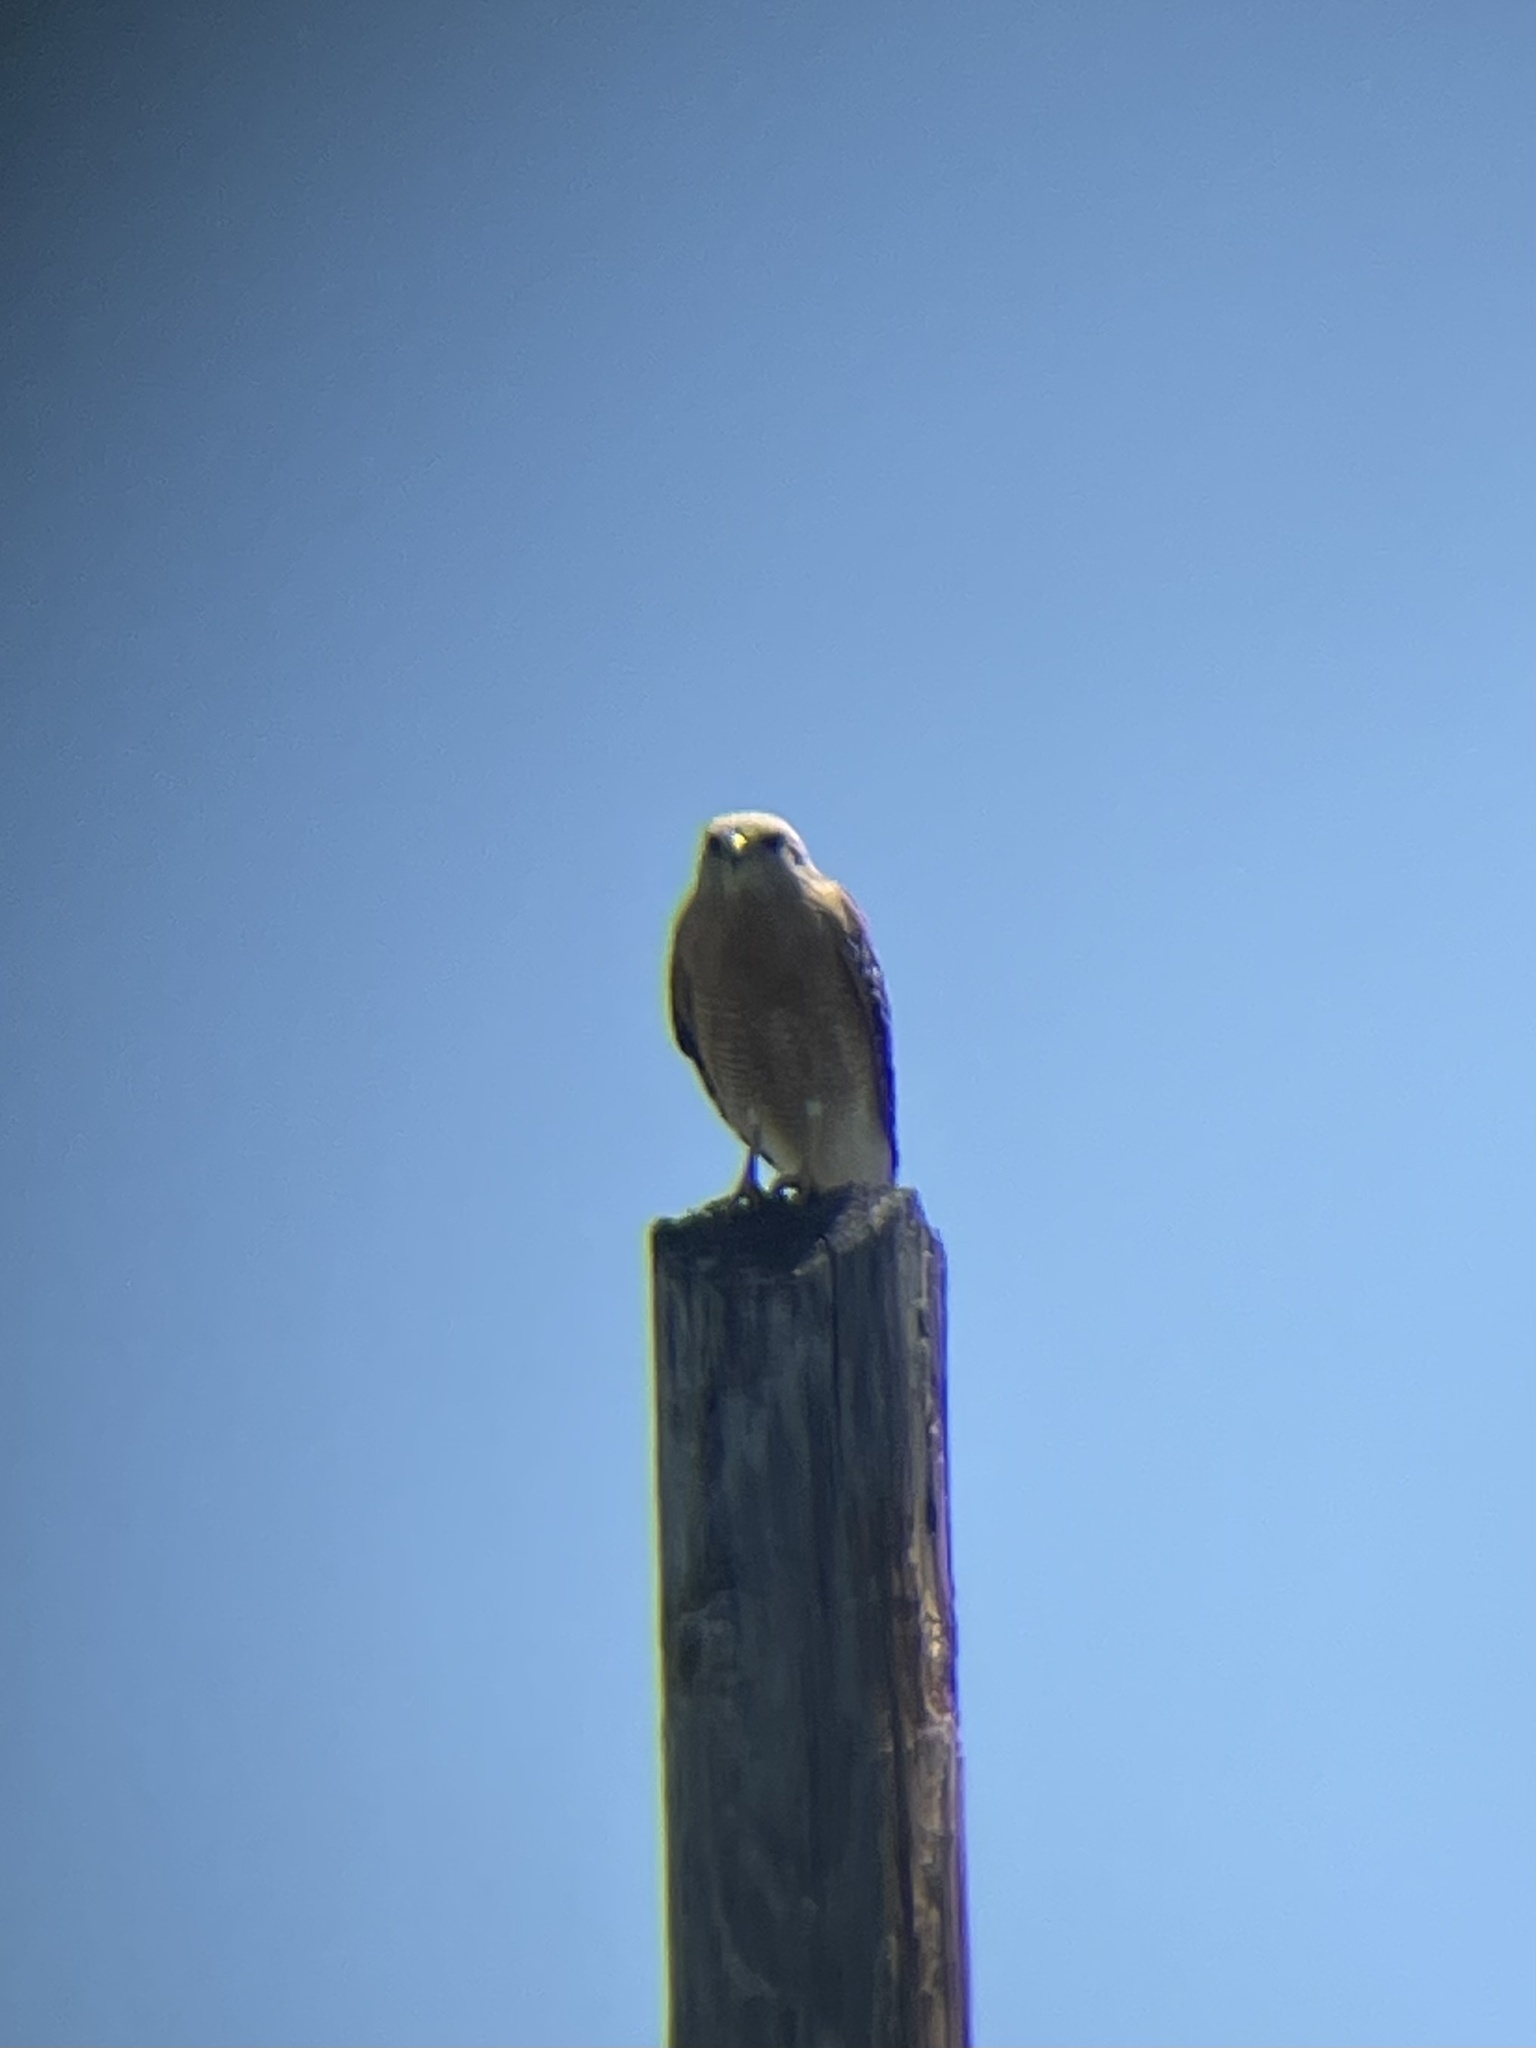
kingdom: Animalia
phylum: Chordata
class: Aves
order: Accipitriformes
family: Accipitridae
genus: Buteo
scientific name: Buteo lineatus
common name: Red-shouldered hawk
